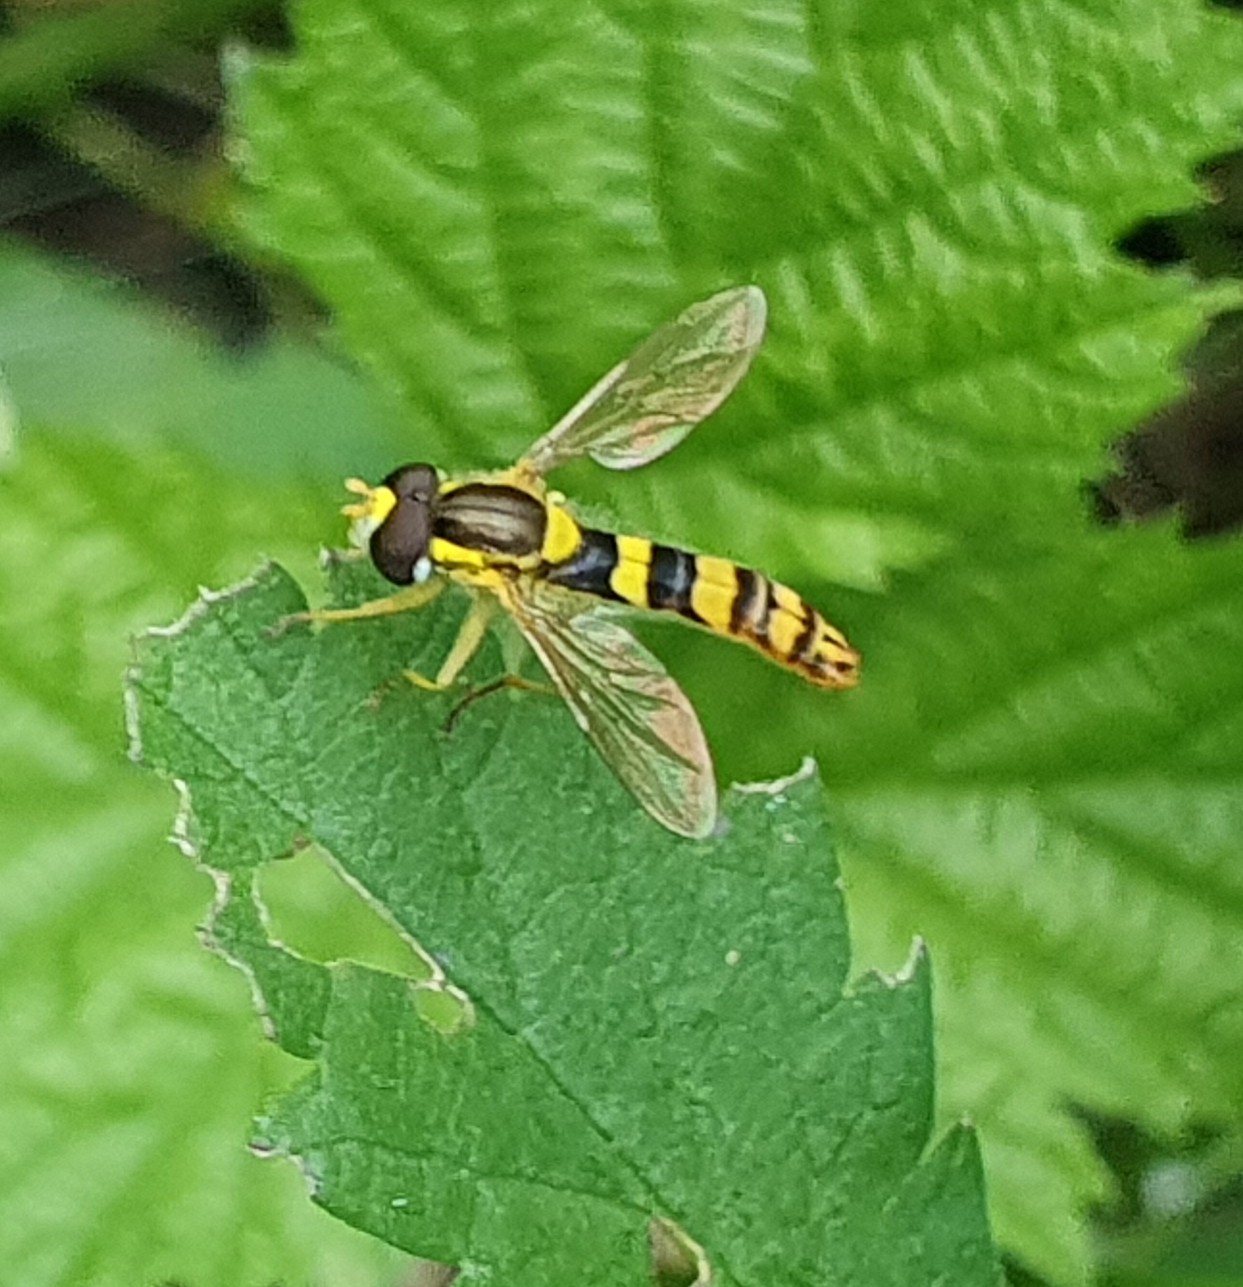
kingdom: Animalia
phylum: Arthropoda
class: Insecta
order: Diptera
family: Syrphidae
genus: Sphaerophoria
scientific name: Sphaerophoria scripta
